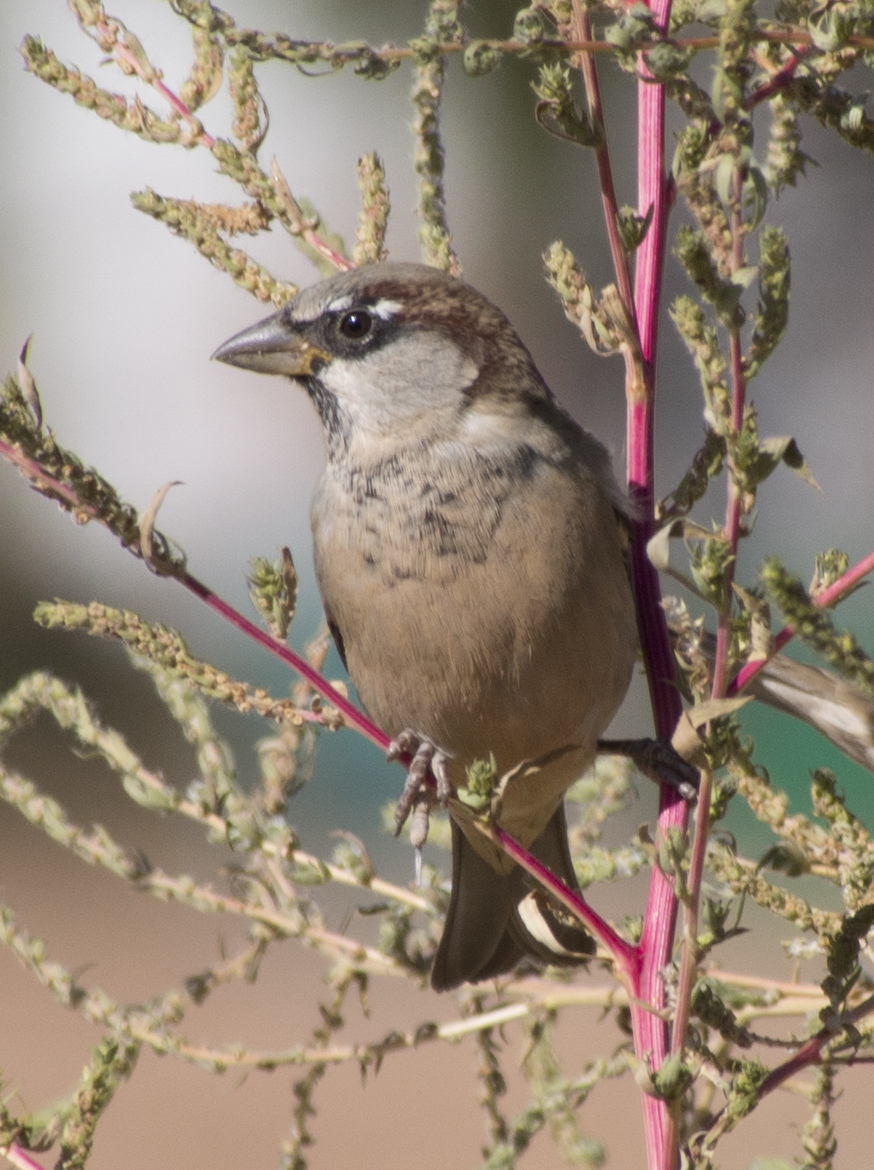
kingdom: Animalia
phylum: Chordata
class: Aves
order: Passeriformes
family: Passeridae
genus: Passer
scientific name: Passer domesticus
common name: House sparrow
